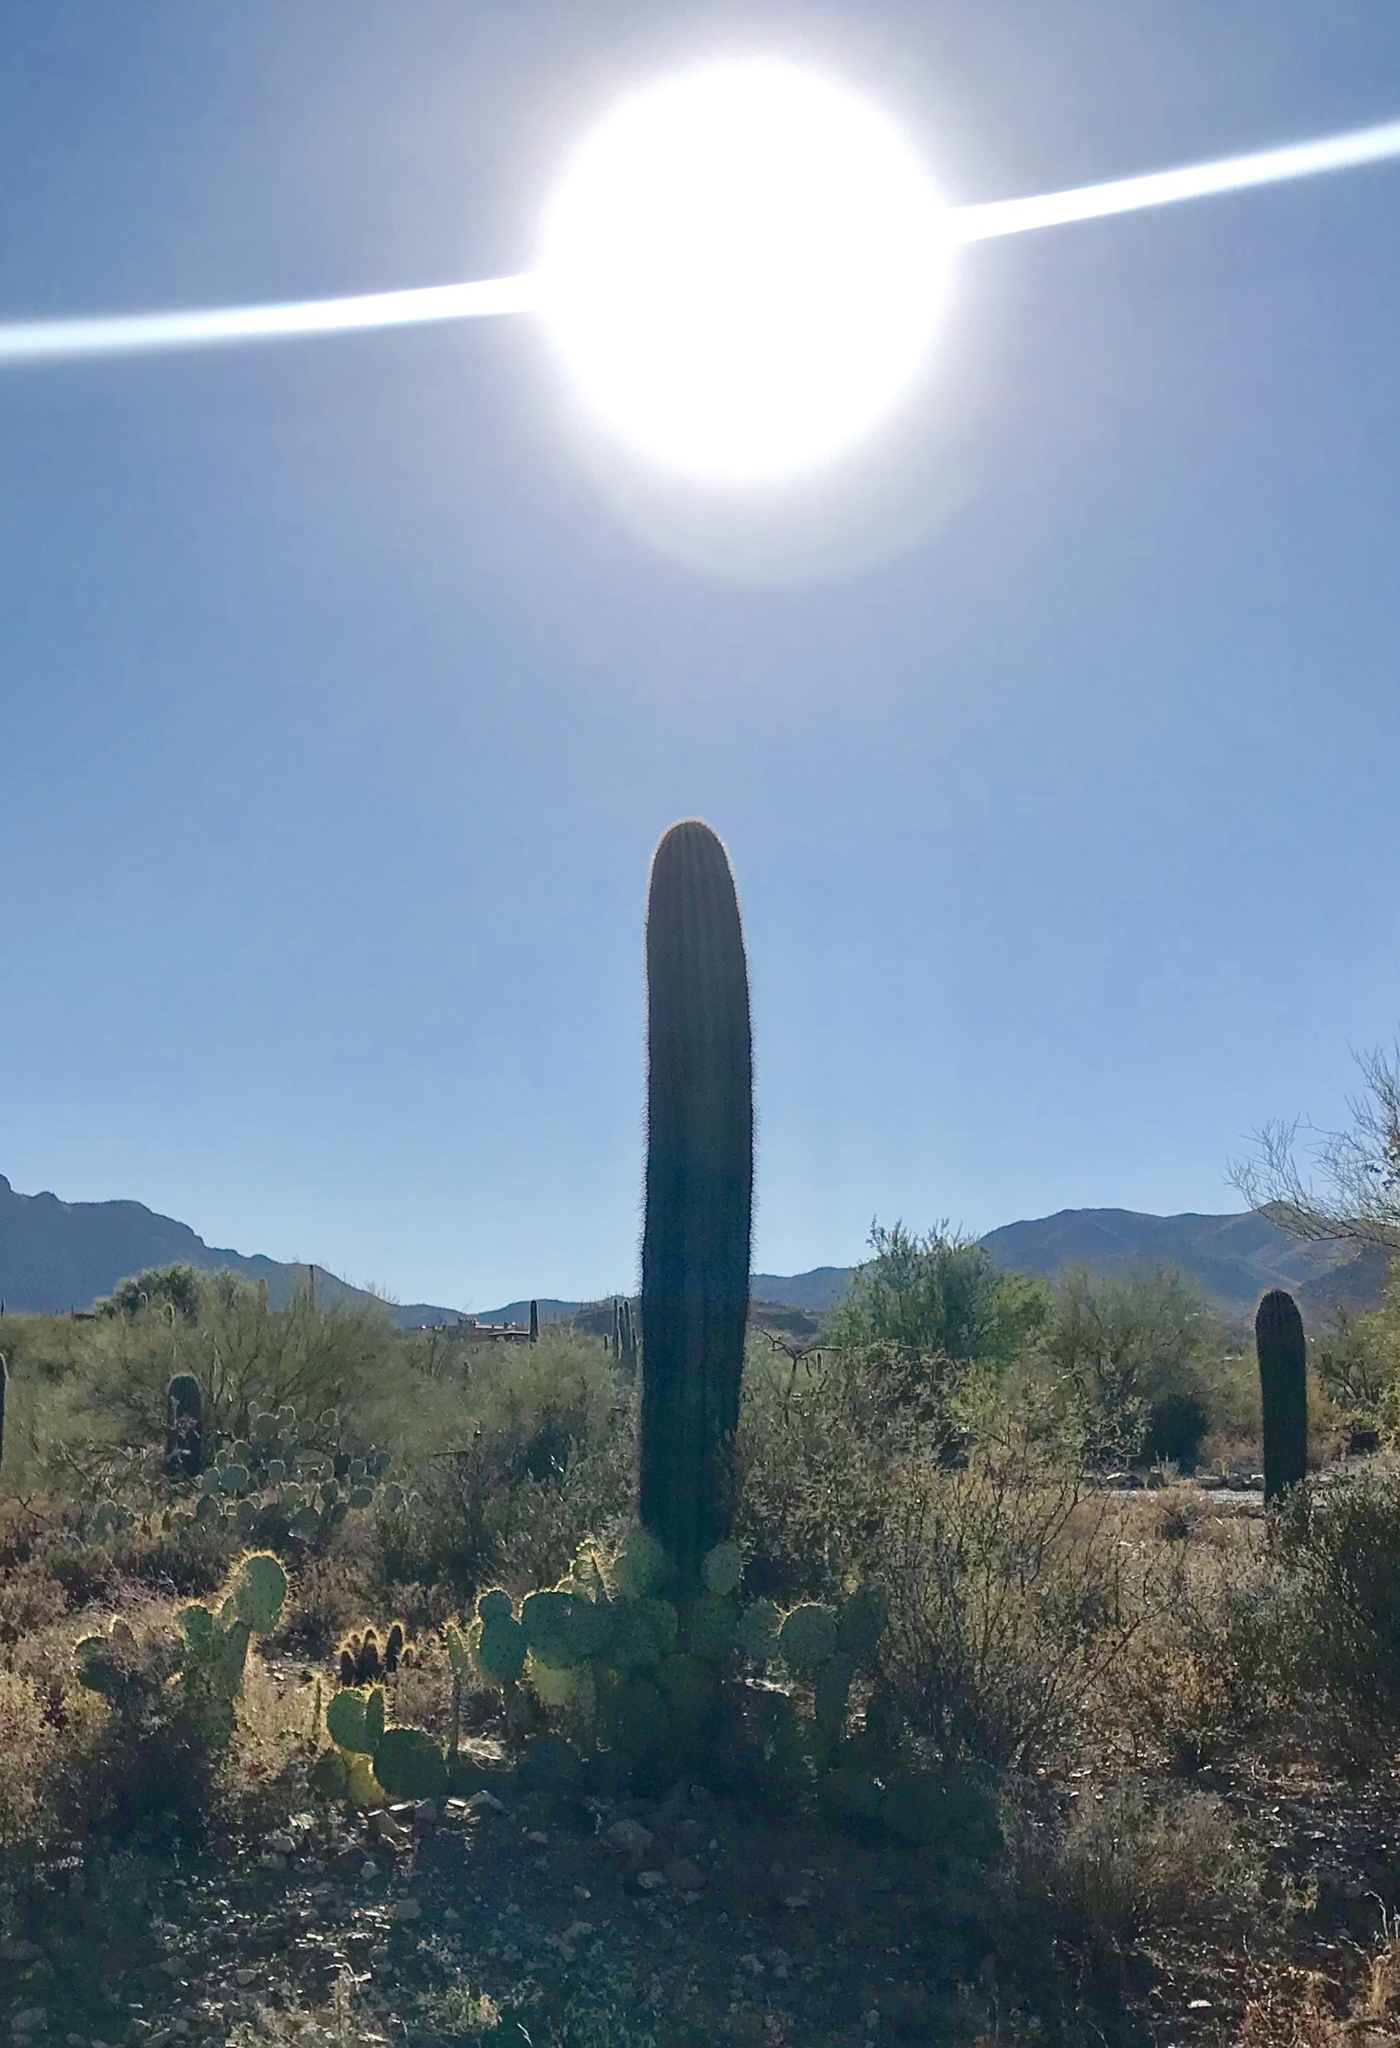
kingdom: Plantae
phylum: Tracheophyta
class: Magnoliopsida
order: Caryophyllales
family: Cactaceae
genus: Carnegiea
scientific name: Carnegiea gigantea
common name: Saguaro
